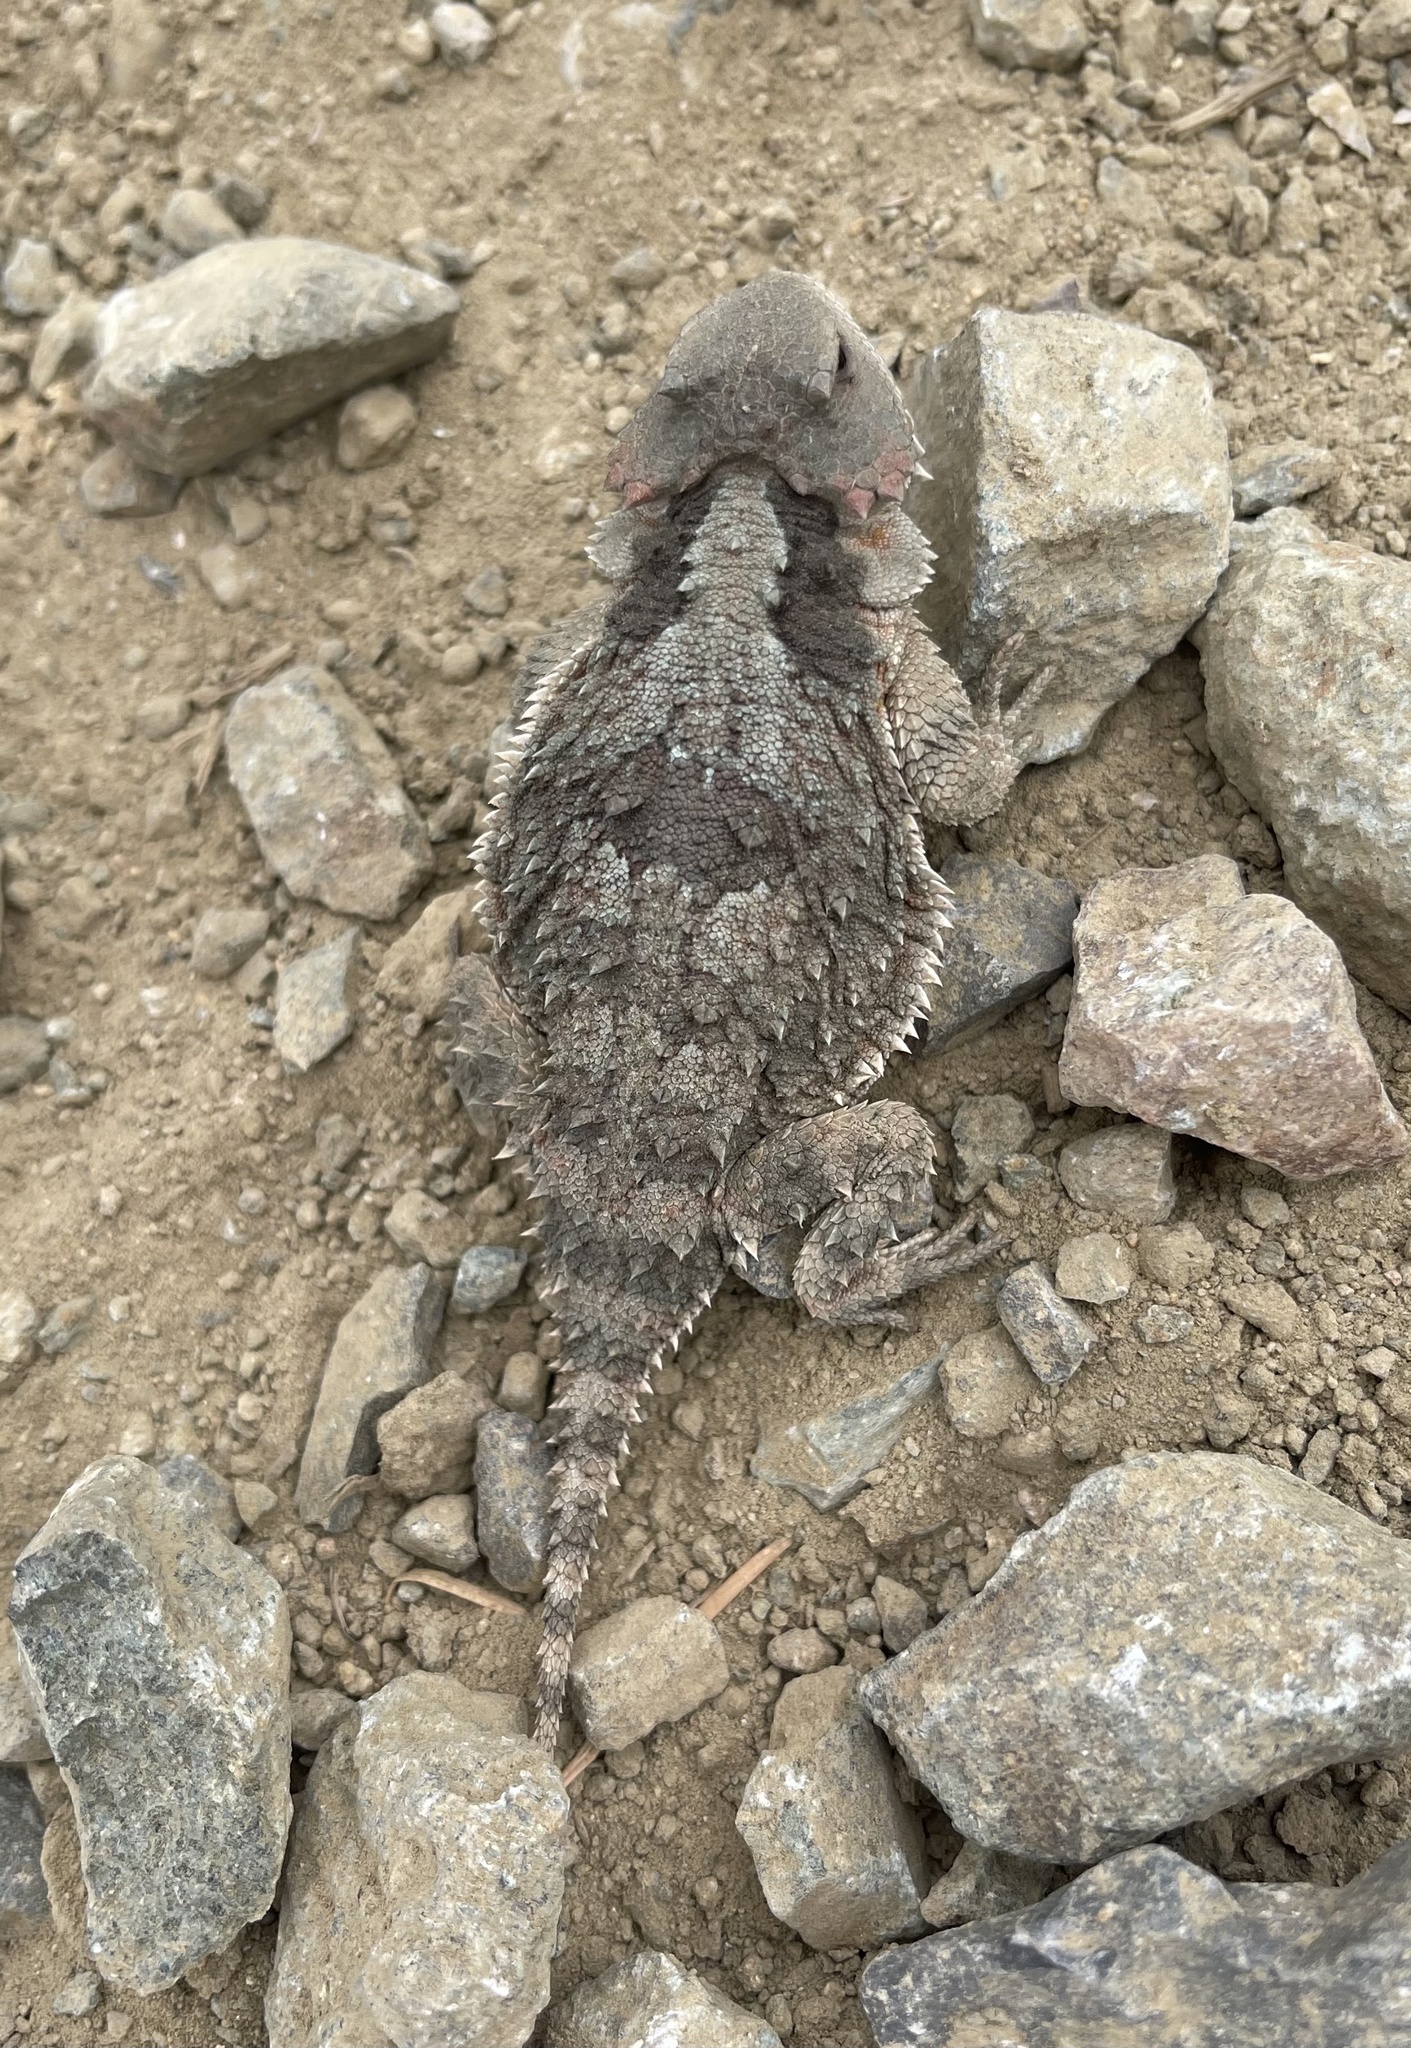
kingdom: Animalia
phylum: Chordata
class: Squamata
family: Phrynosomatidae
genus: Phrynosoma
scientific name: Phrynosoma hernandesi
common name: Greater short-horned lizard
